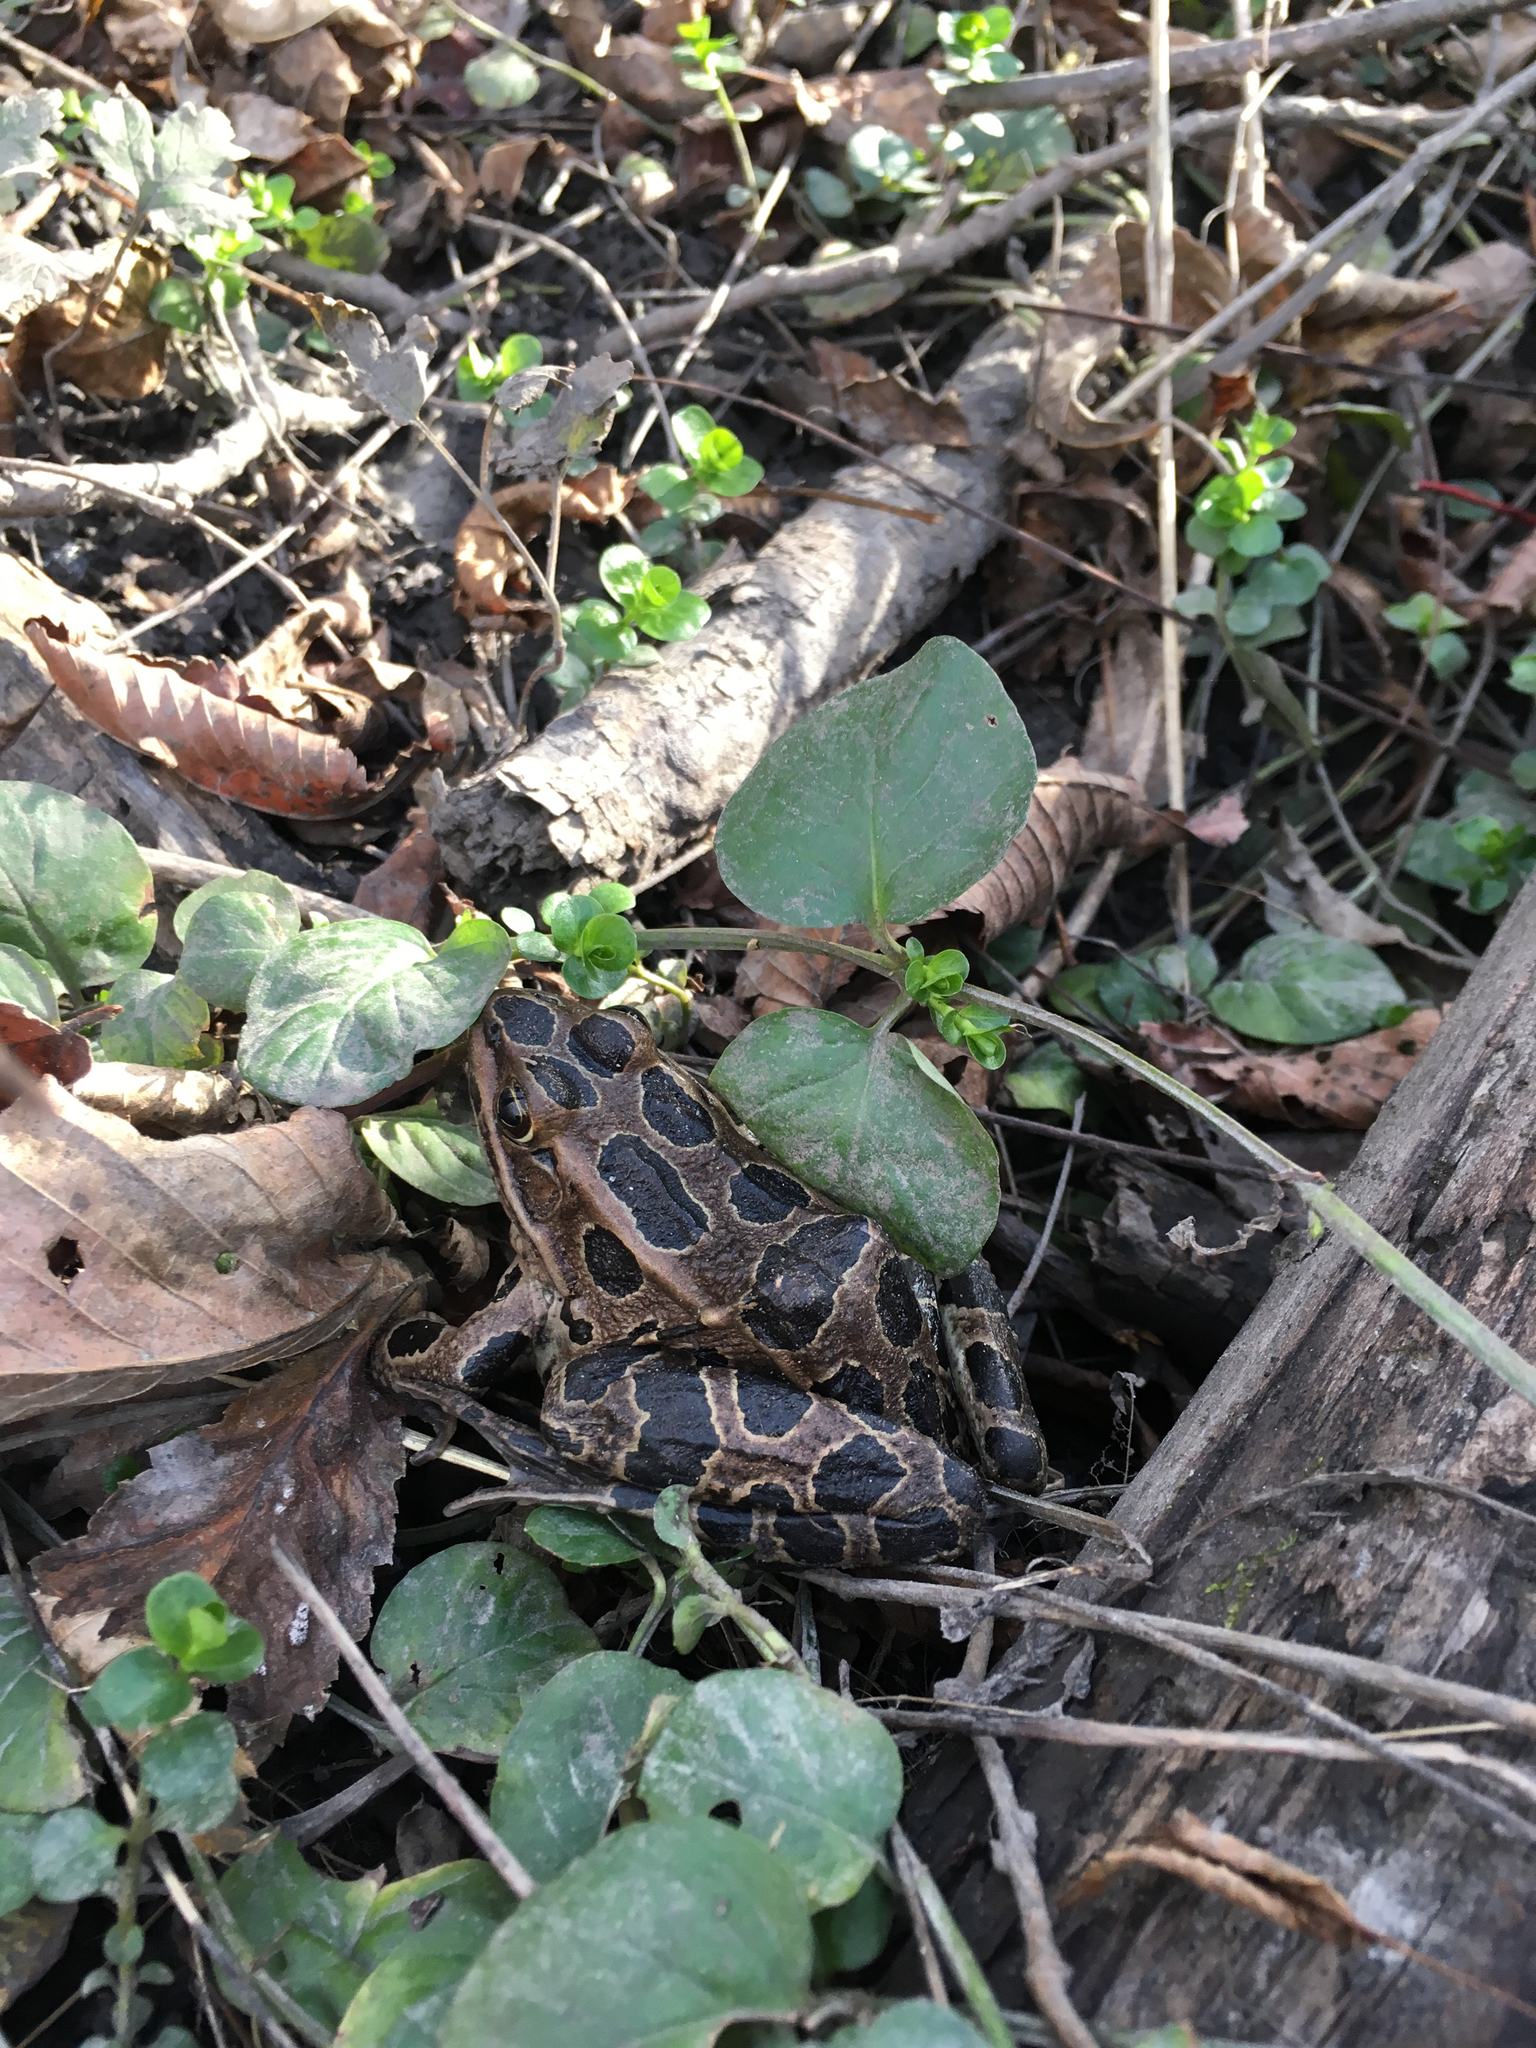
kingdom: Animalia
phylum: Chordata
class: Amphibia
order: Anura
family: Ranidae
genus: Lithobates
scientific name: Lithobates pipiens
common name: Northern leopard frog
